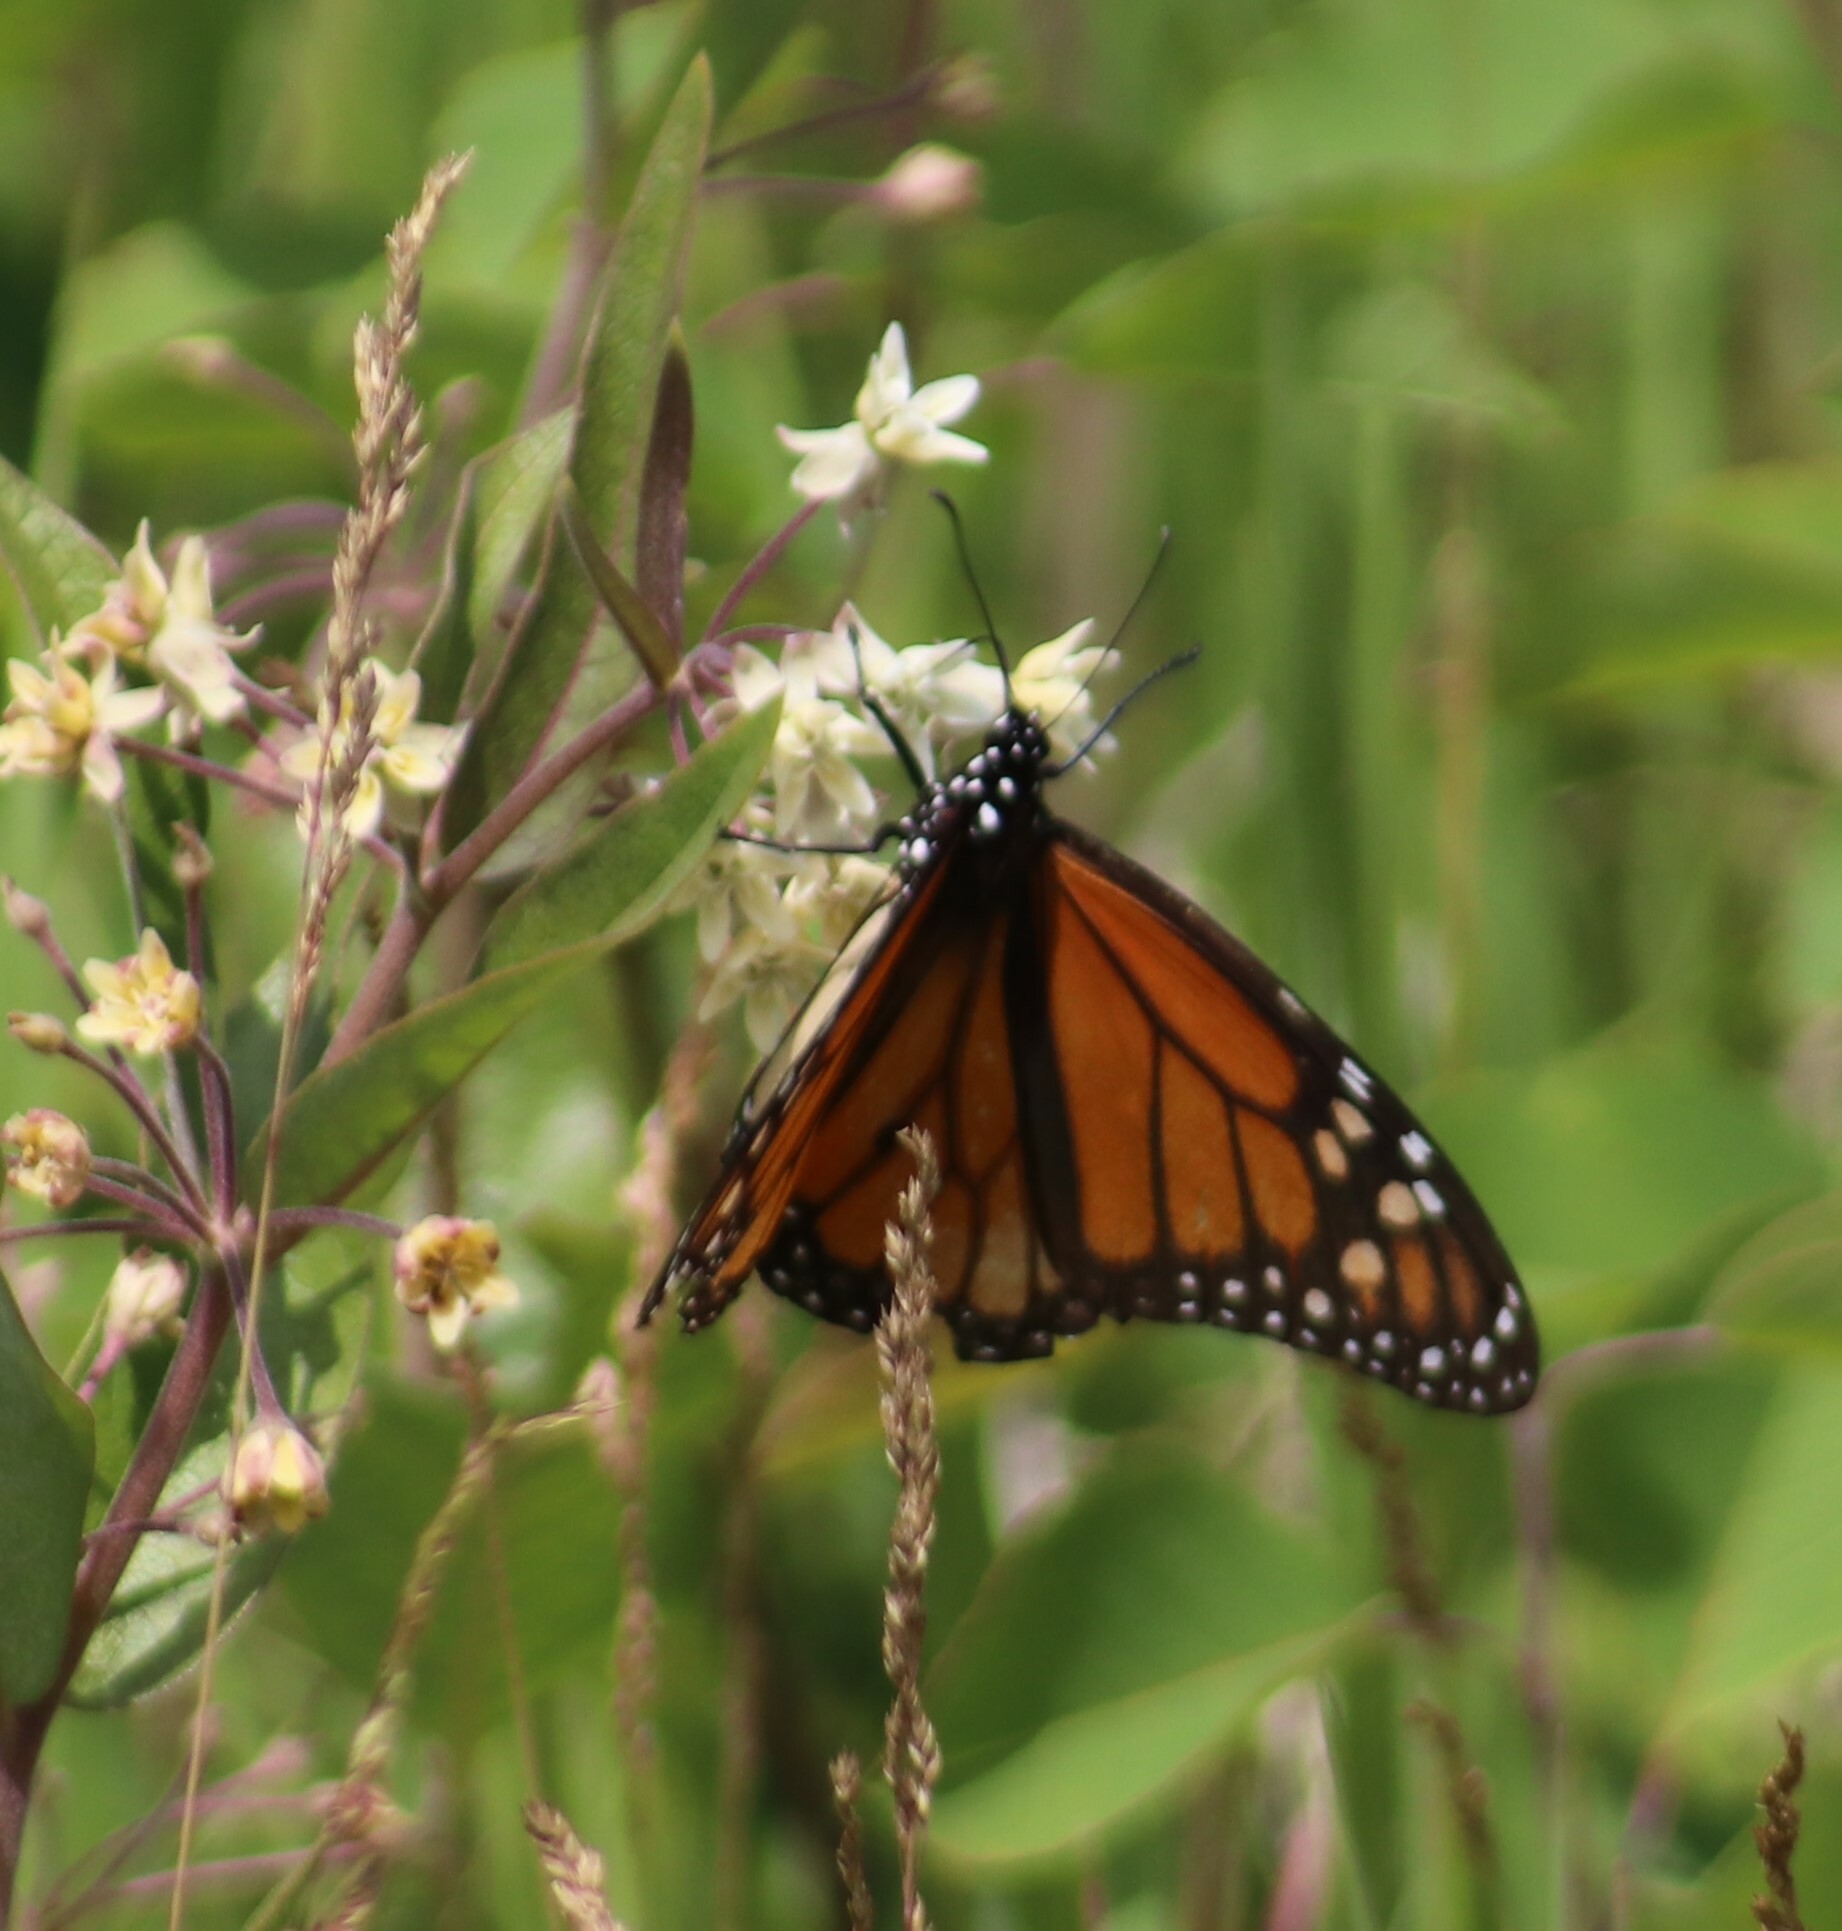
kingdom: Animalia
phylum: Arthropoda
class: Insecta
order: Lepidoptera
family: Nymphalidae
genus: Danaus
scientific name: Danaus plexippus
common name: Monarch
